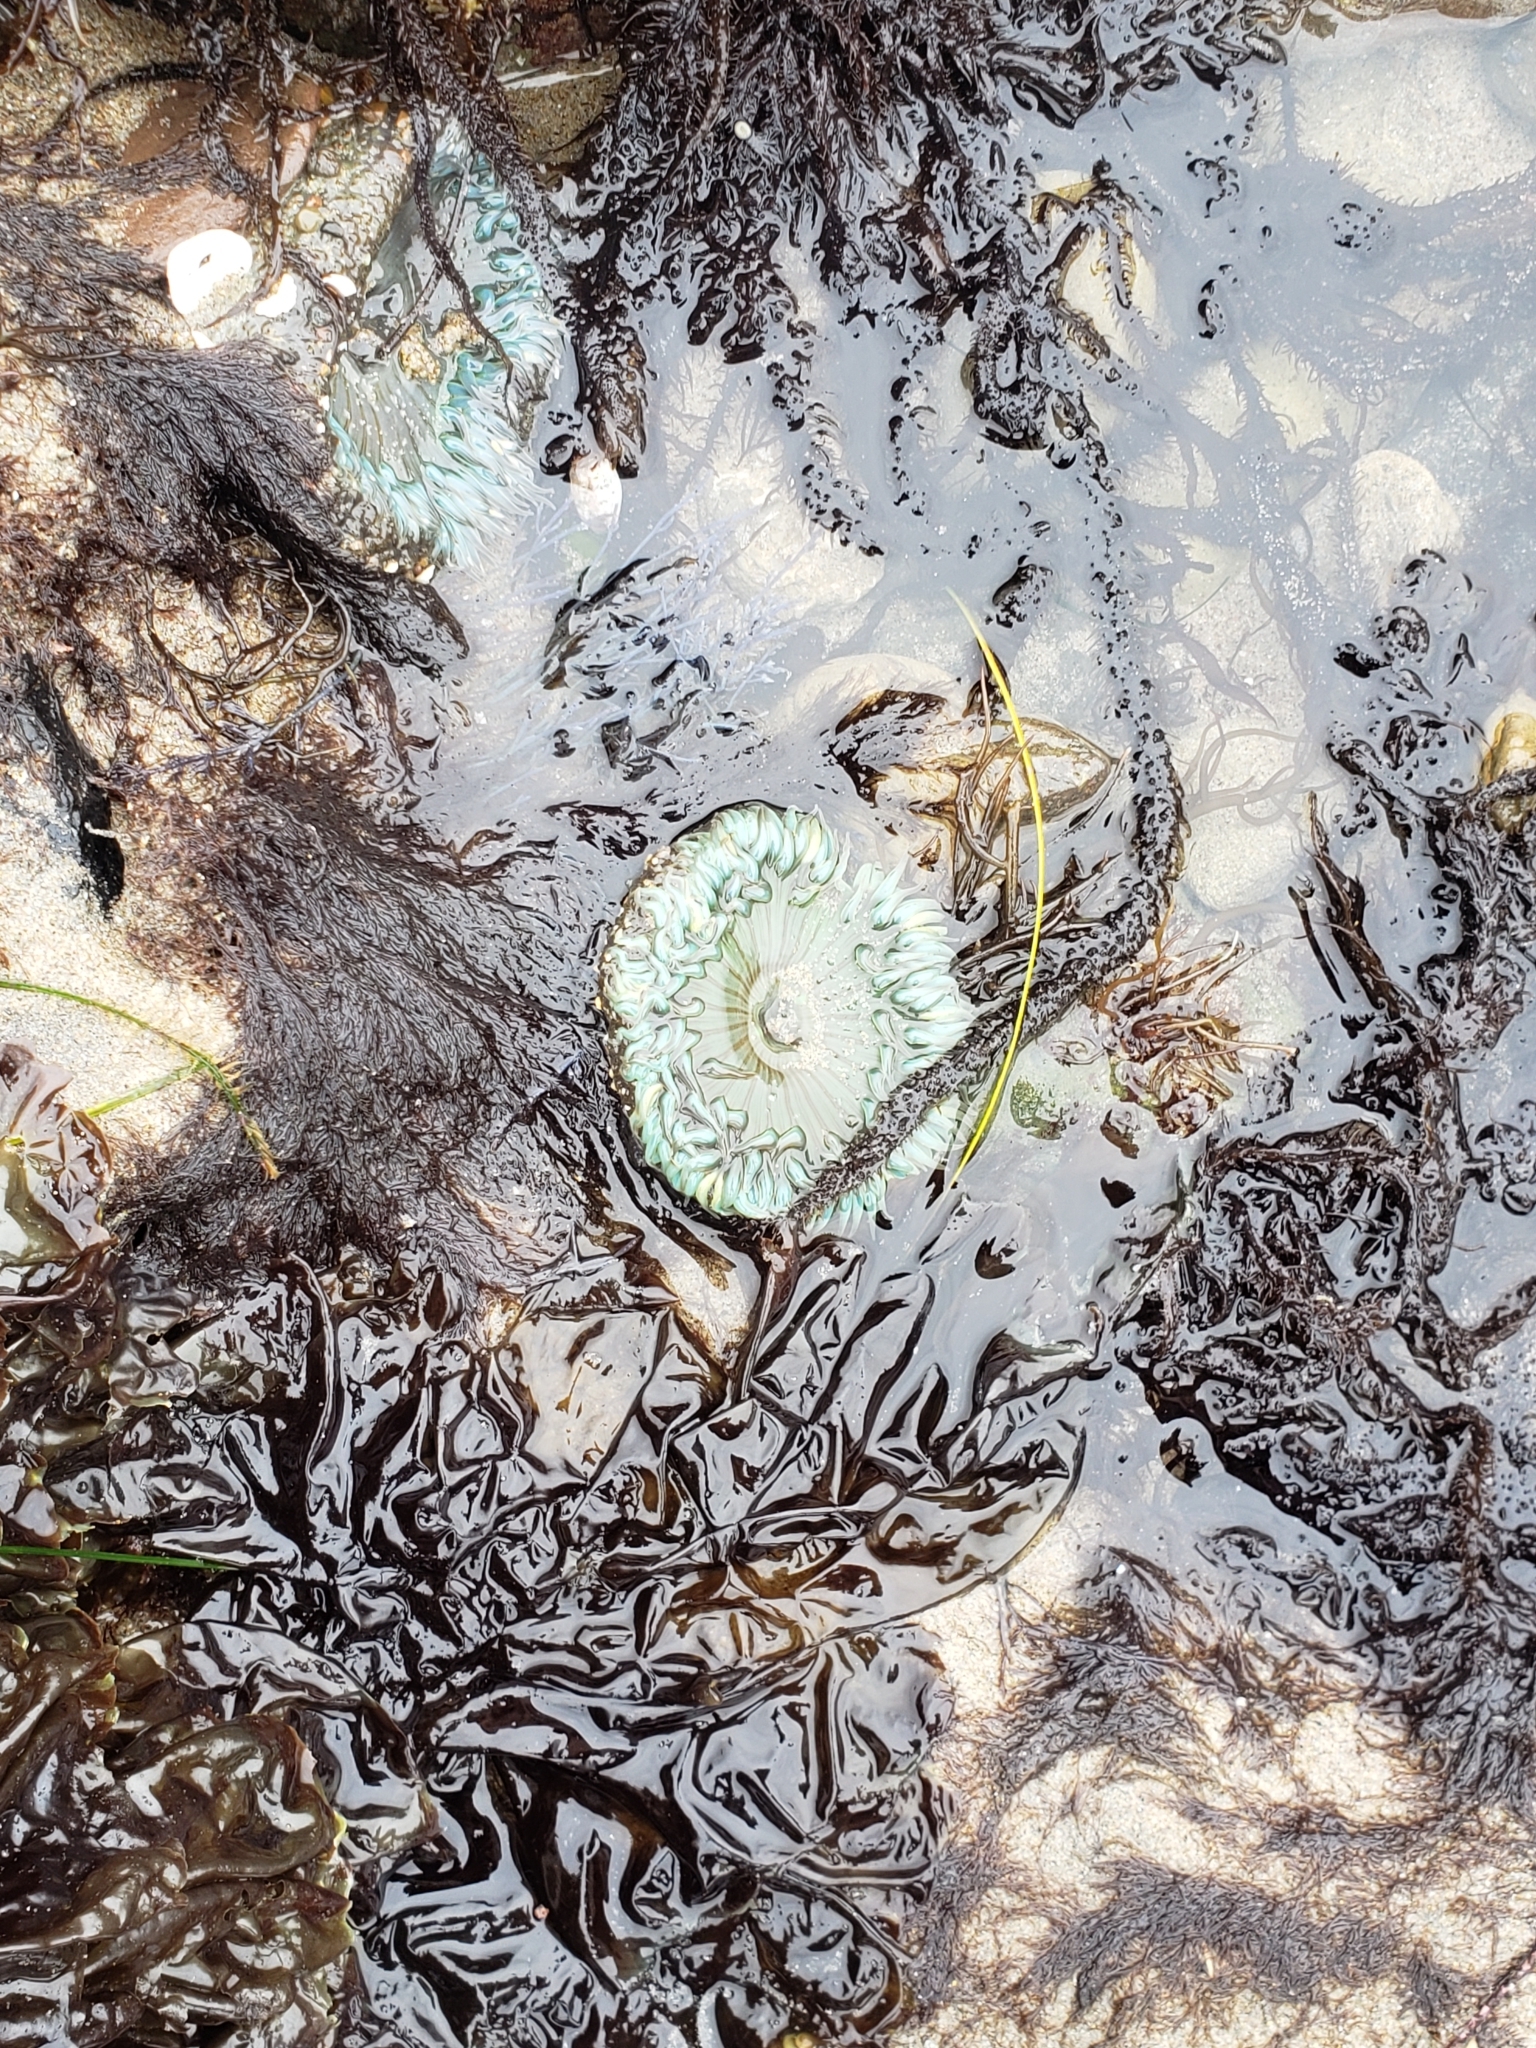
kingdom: Animalia
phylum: Cnidaria
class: Anthozoa
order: Actiniaria
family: Actiniidae
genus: Anthopleura
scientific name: Anthopleura sola
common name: Sun anemone
